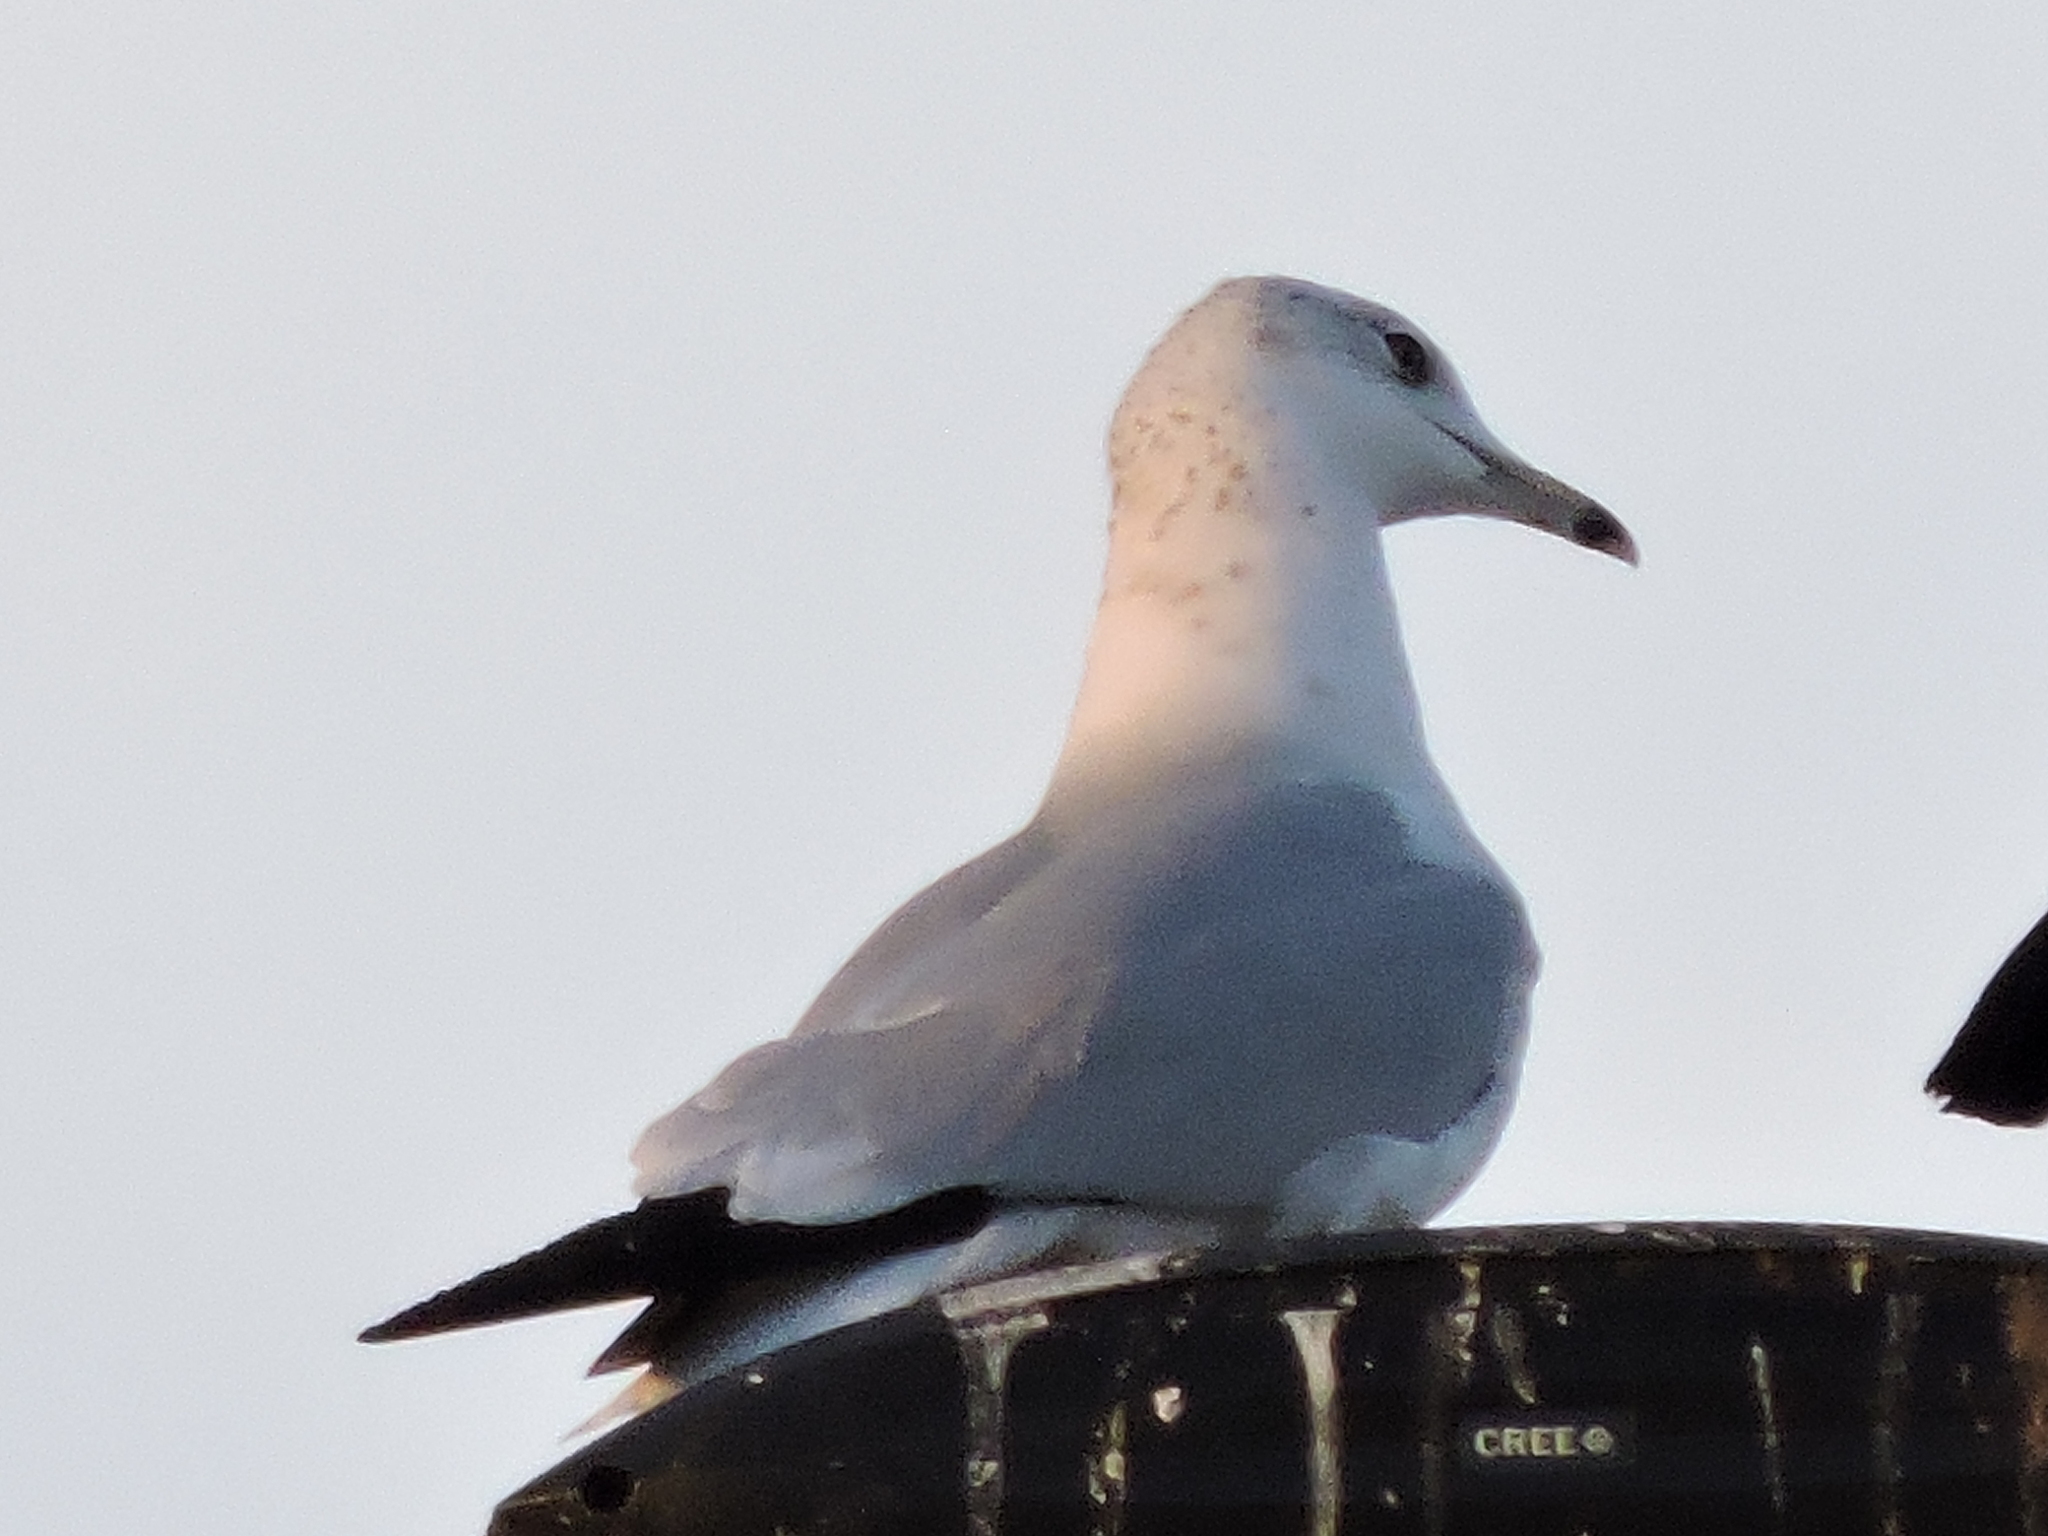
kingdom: Animalia
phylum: Chordata
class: Aves
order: Charadriiformes
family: Laridae
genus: Larus
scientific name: Larus delawarensis
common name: Ring-billed gull
